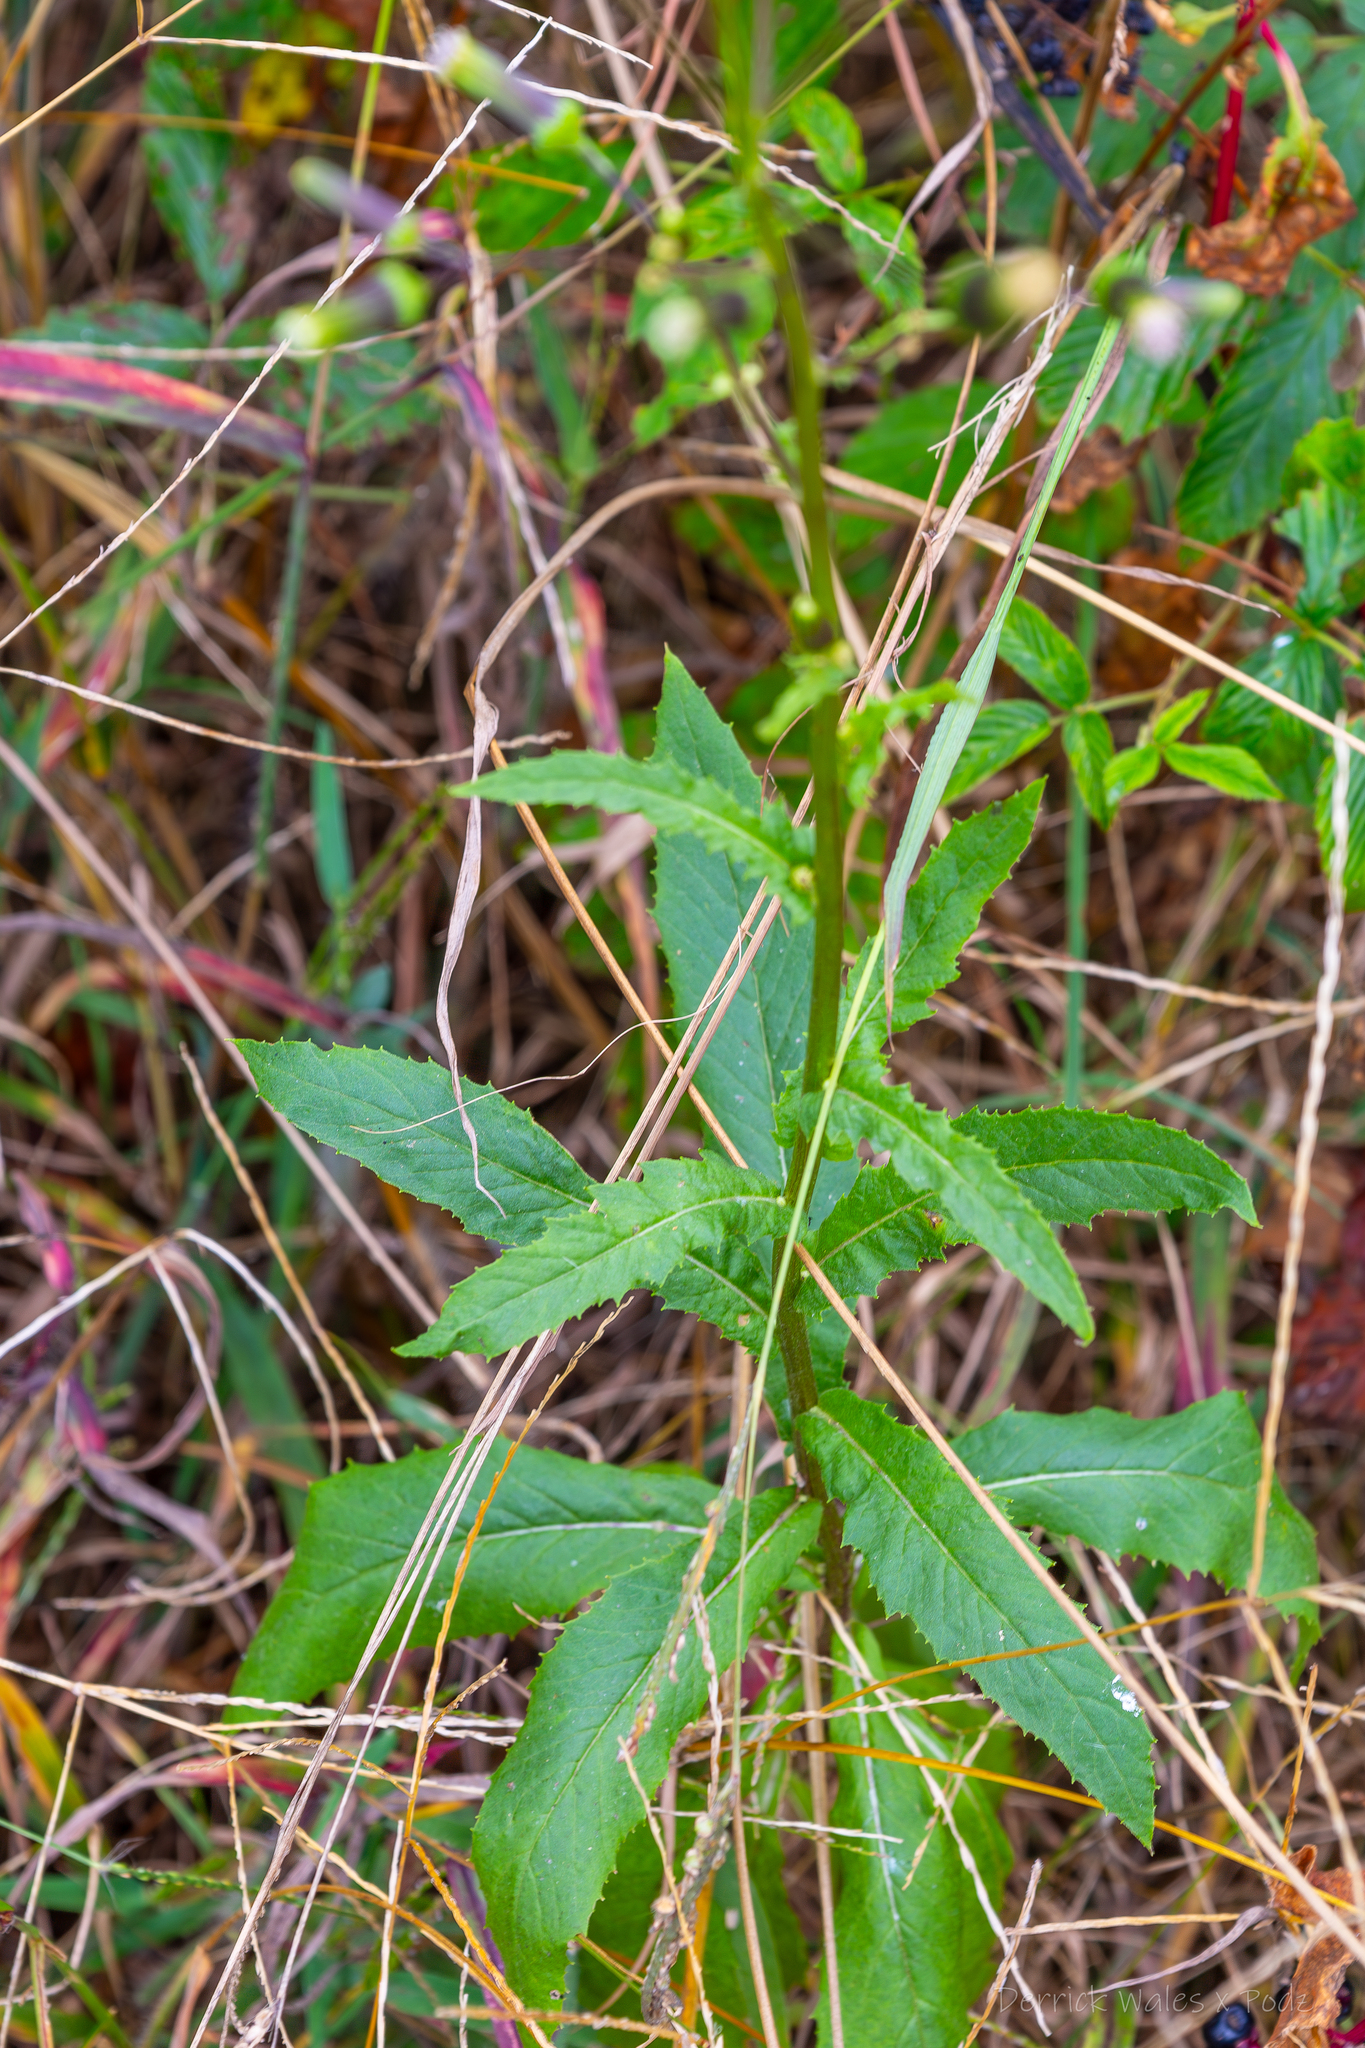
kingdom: Plantae
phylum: Tracheophyta
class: Magnoliopsida
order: Asterales
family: Asteraceae
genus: Erechtites
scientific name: Erechtites hieraciifolius
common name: American burnweed
